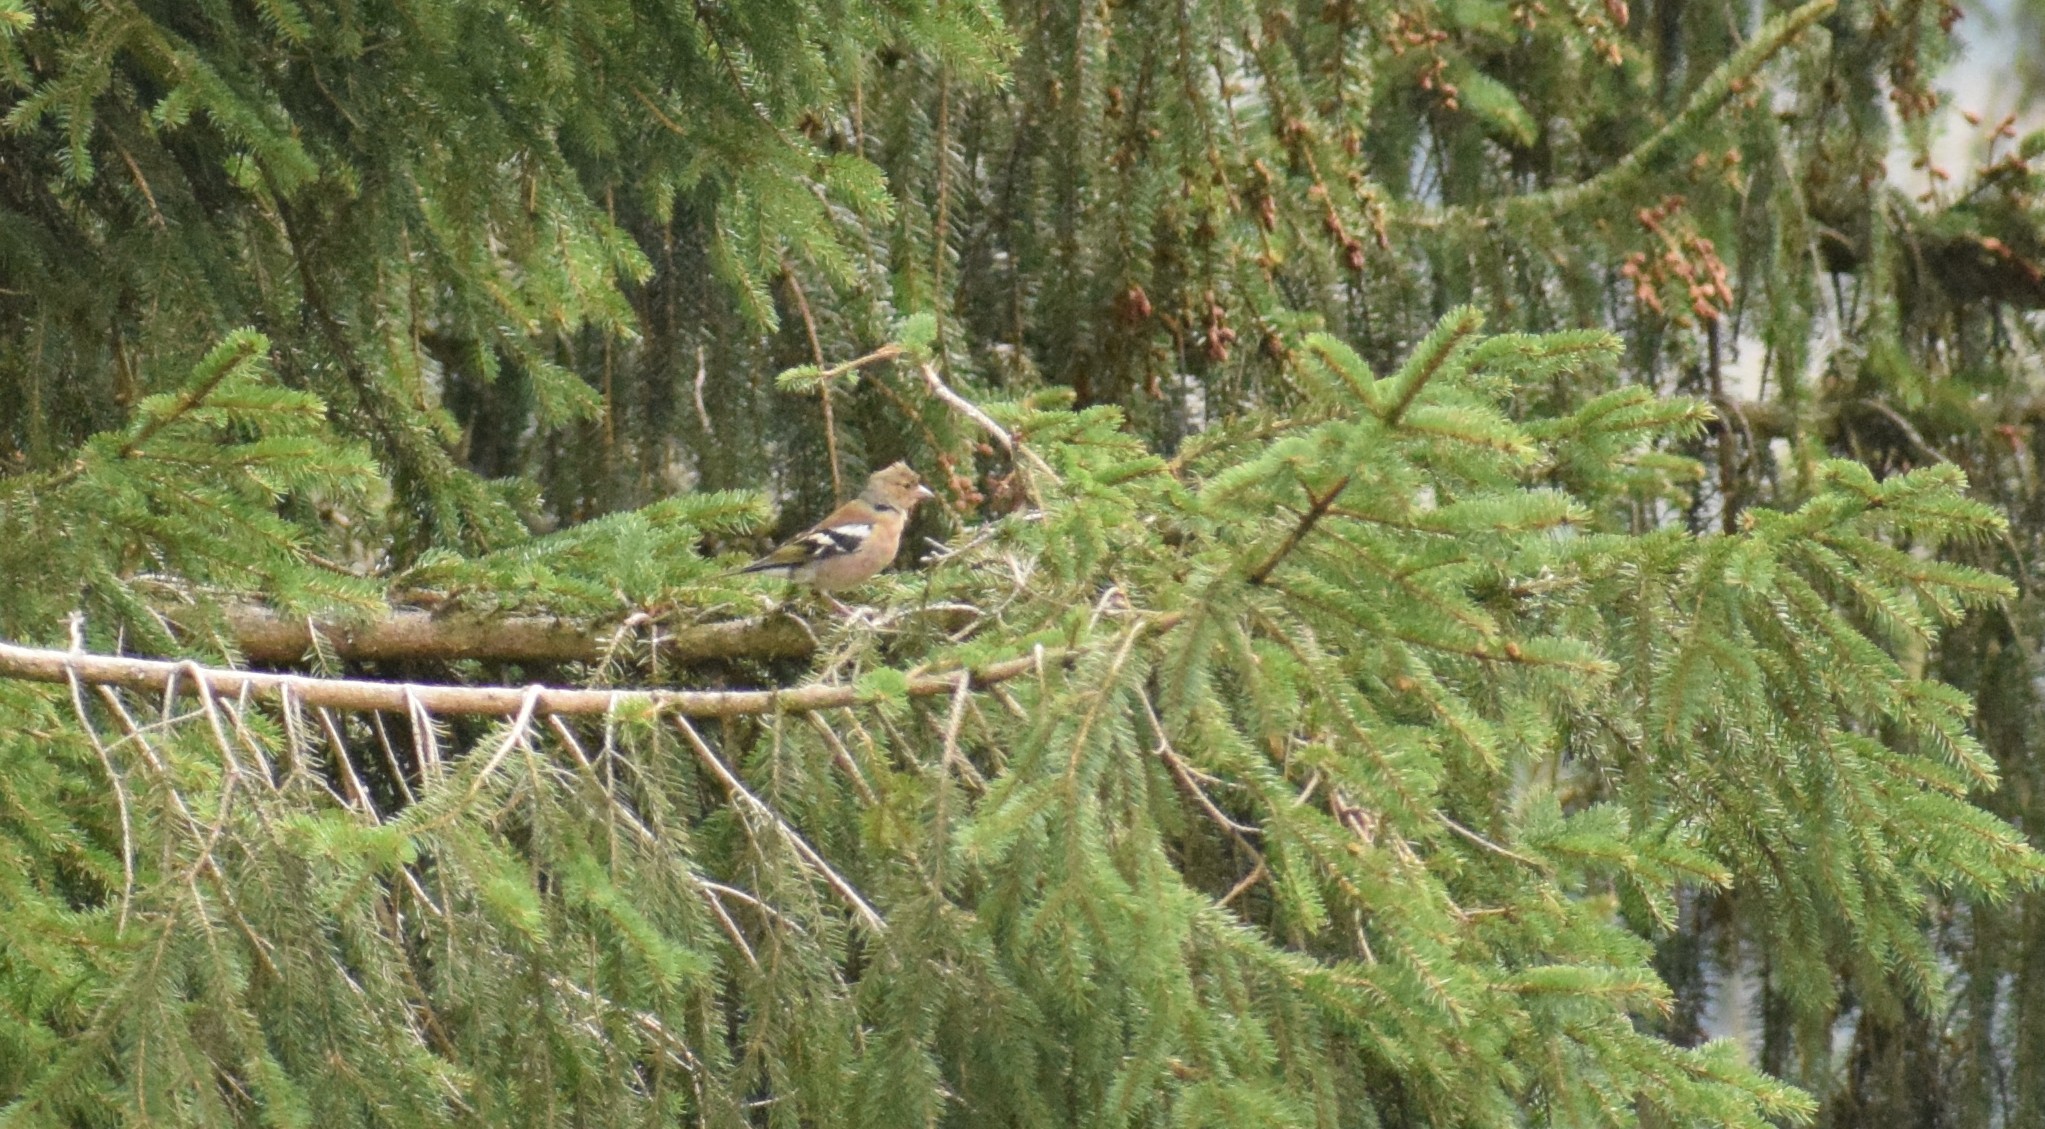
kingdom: Animalia
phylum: Chordata
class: Aves
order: Passeriformes
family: Fringillidae
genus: Fringilla
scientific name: Fringilla coelebs
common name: Common chaffinch
